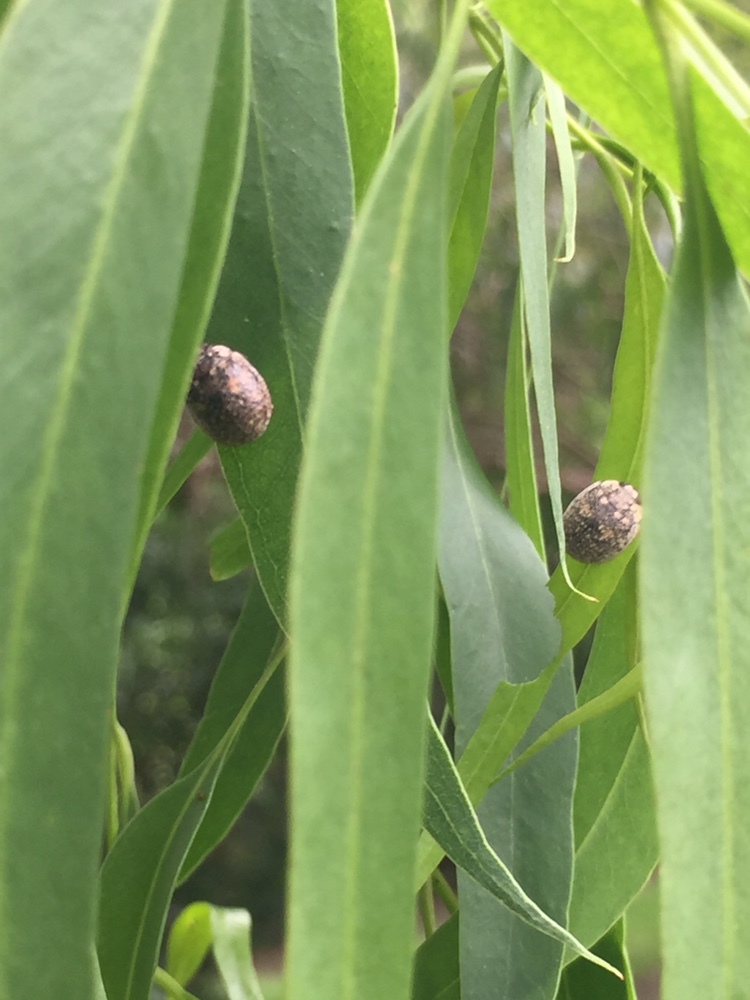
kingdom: Animalia
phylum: Arthropoda
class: Insecta
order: Coleoptera
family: Chrysomelidae
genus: Trachymela
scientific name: Trachymela sloanei
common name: Australian tortoise beetle
